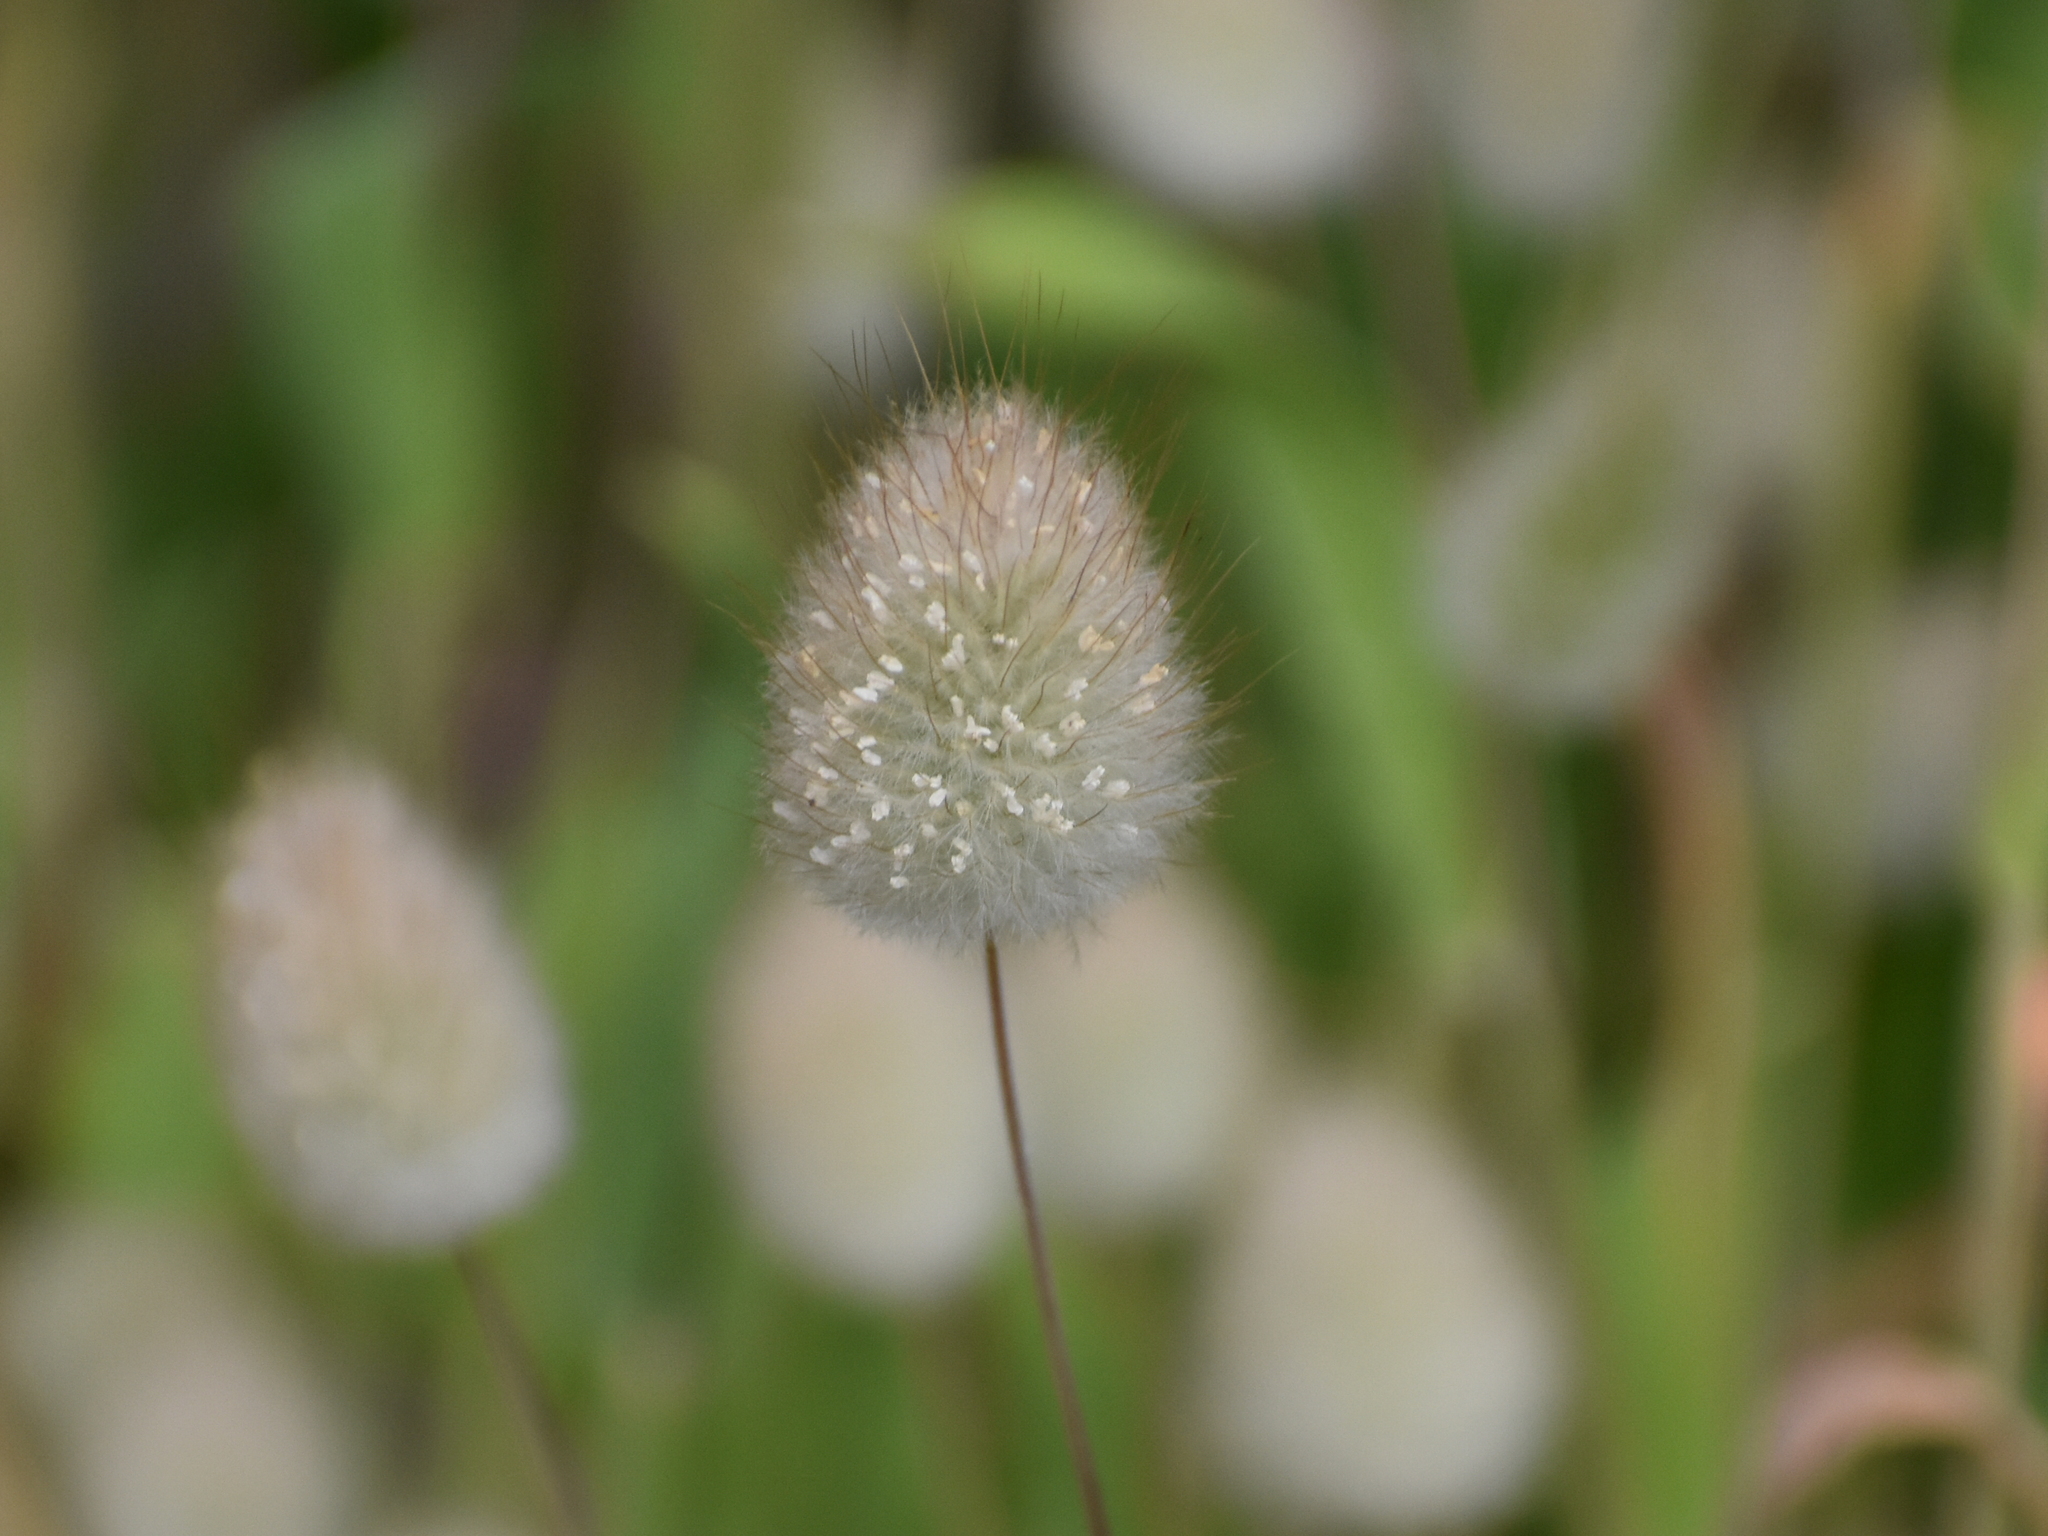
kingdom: Plantae
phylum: Tracheophyta
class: Liliopsida
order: Poales
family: Poaceae
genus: Lagurus
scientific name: Lagurus ovatus
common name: Hare's-tail
